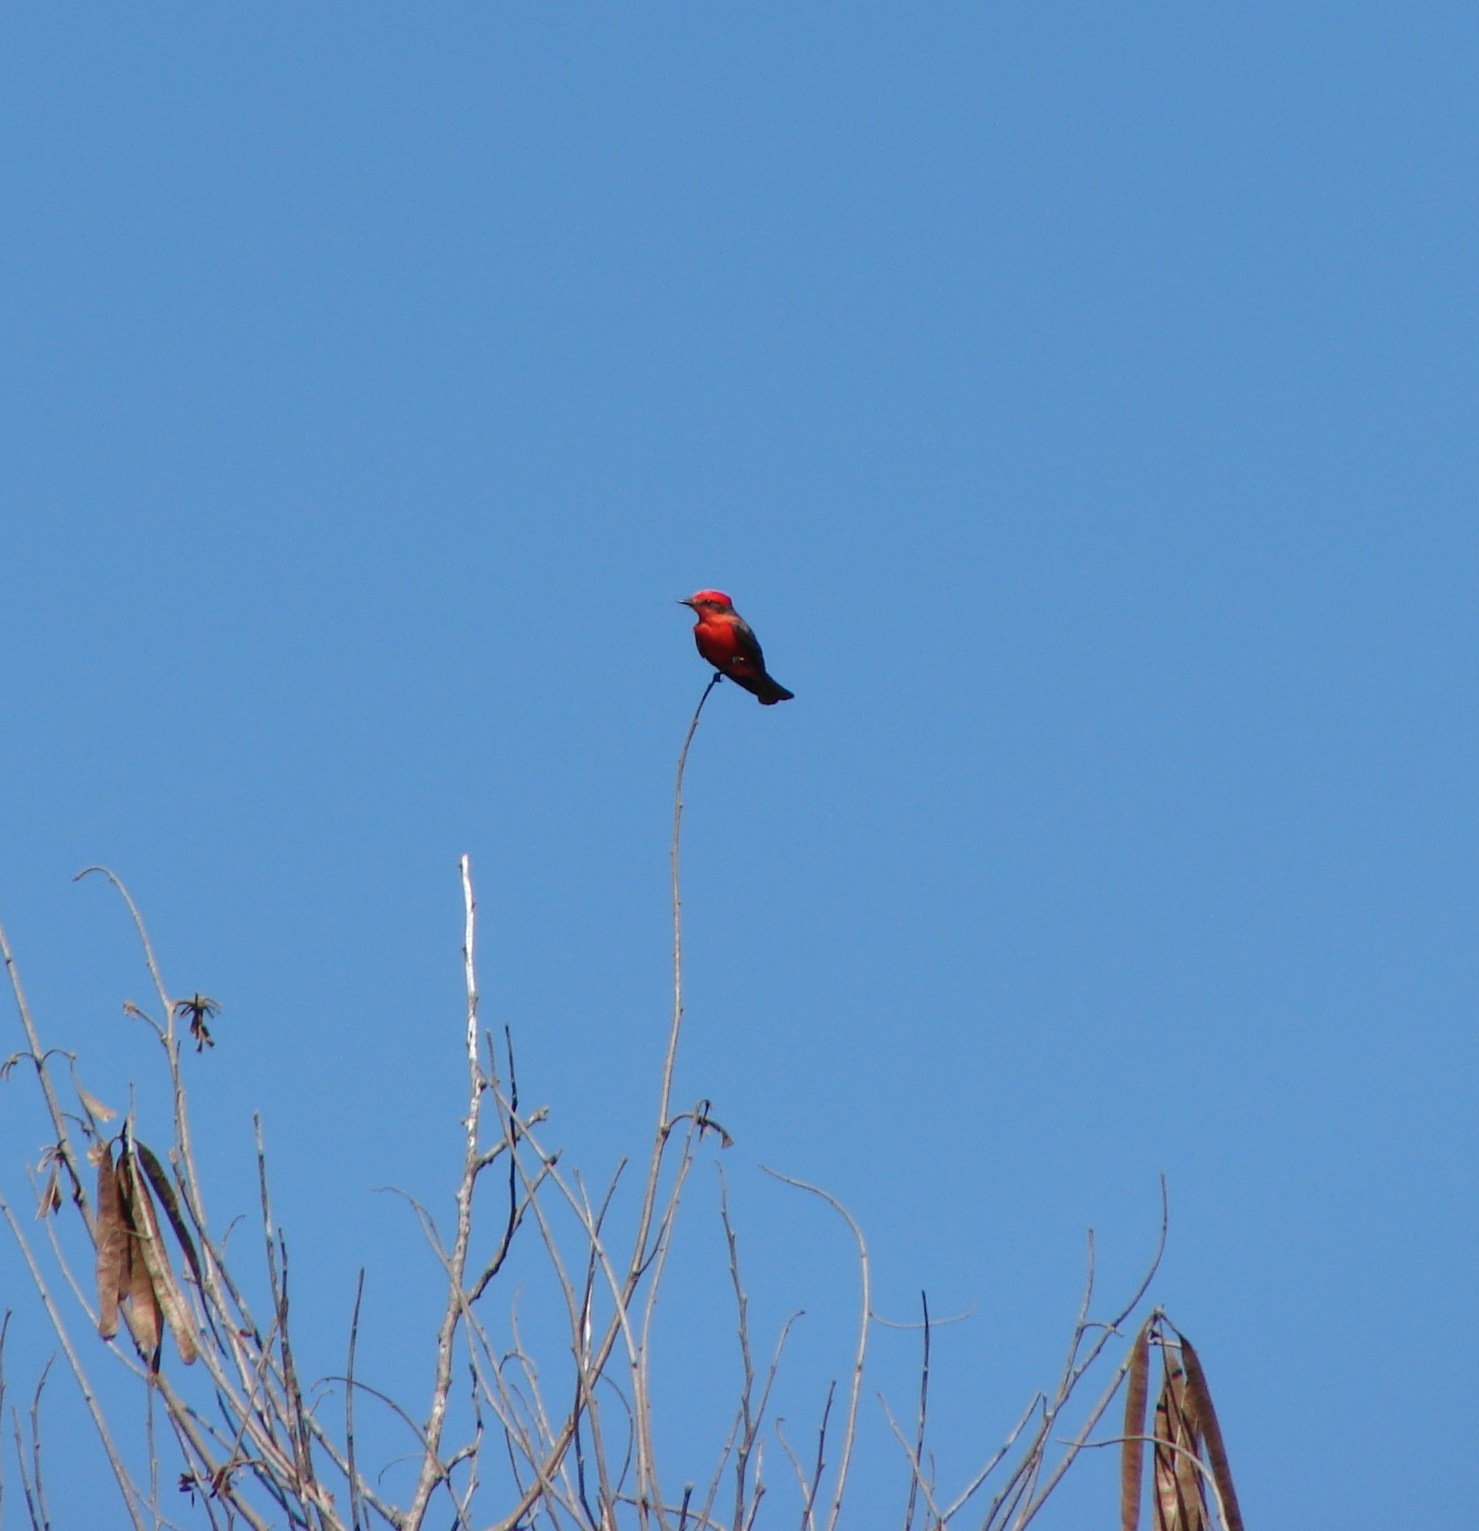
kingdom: Animalia
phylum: Chordata
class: Aves
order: Passeriformes
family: Tyrannidae
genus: Pyrocephalus
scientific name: Pyrocephalus rubinus
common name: Vermilion flycatcher
